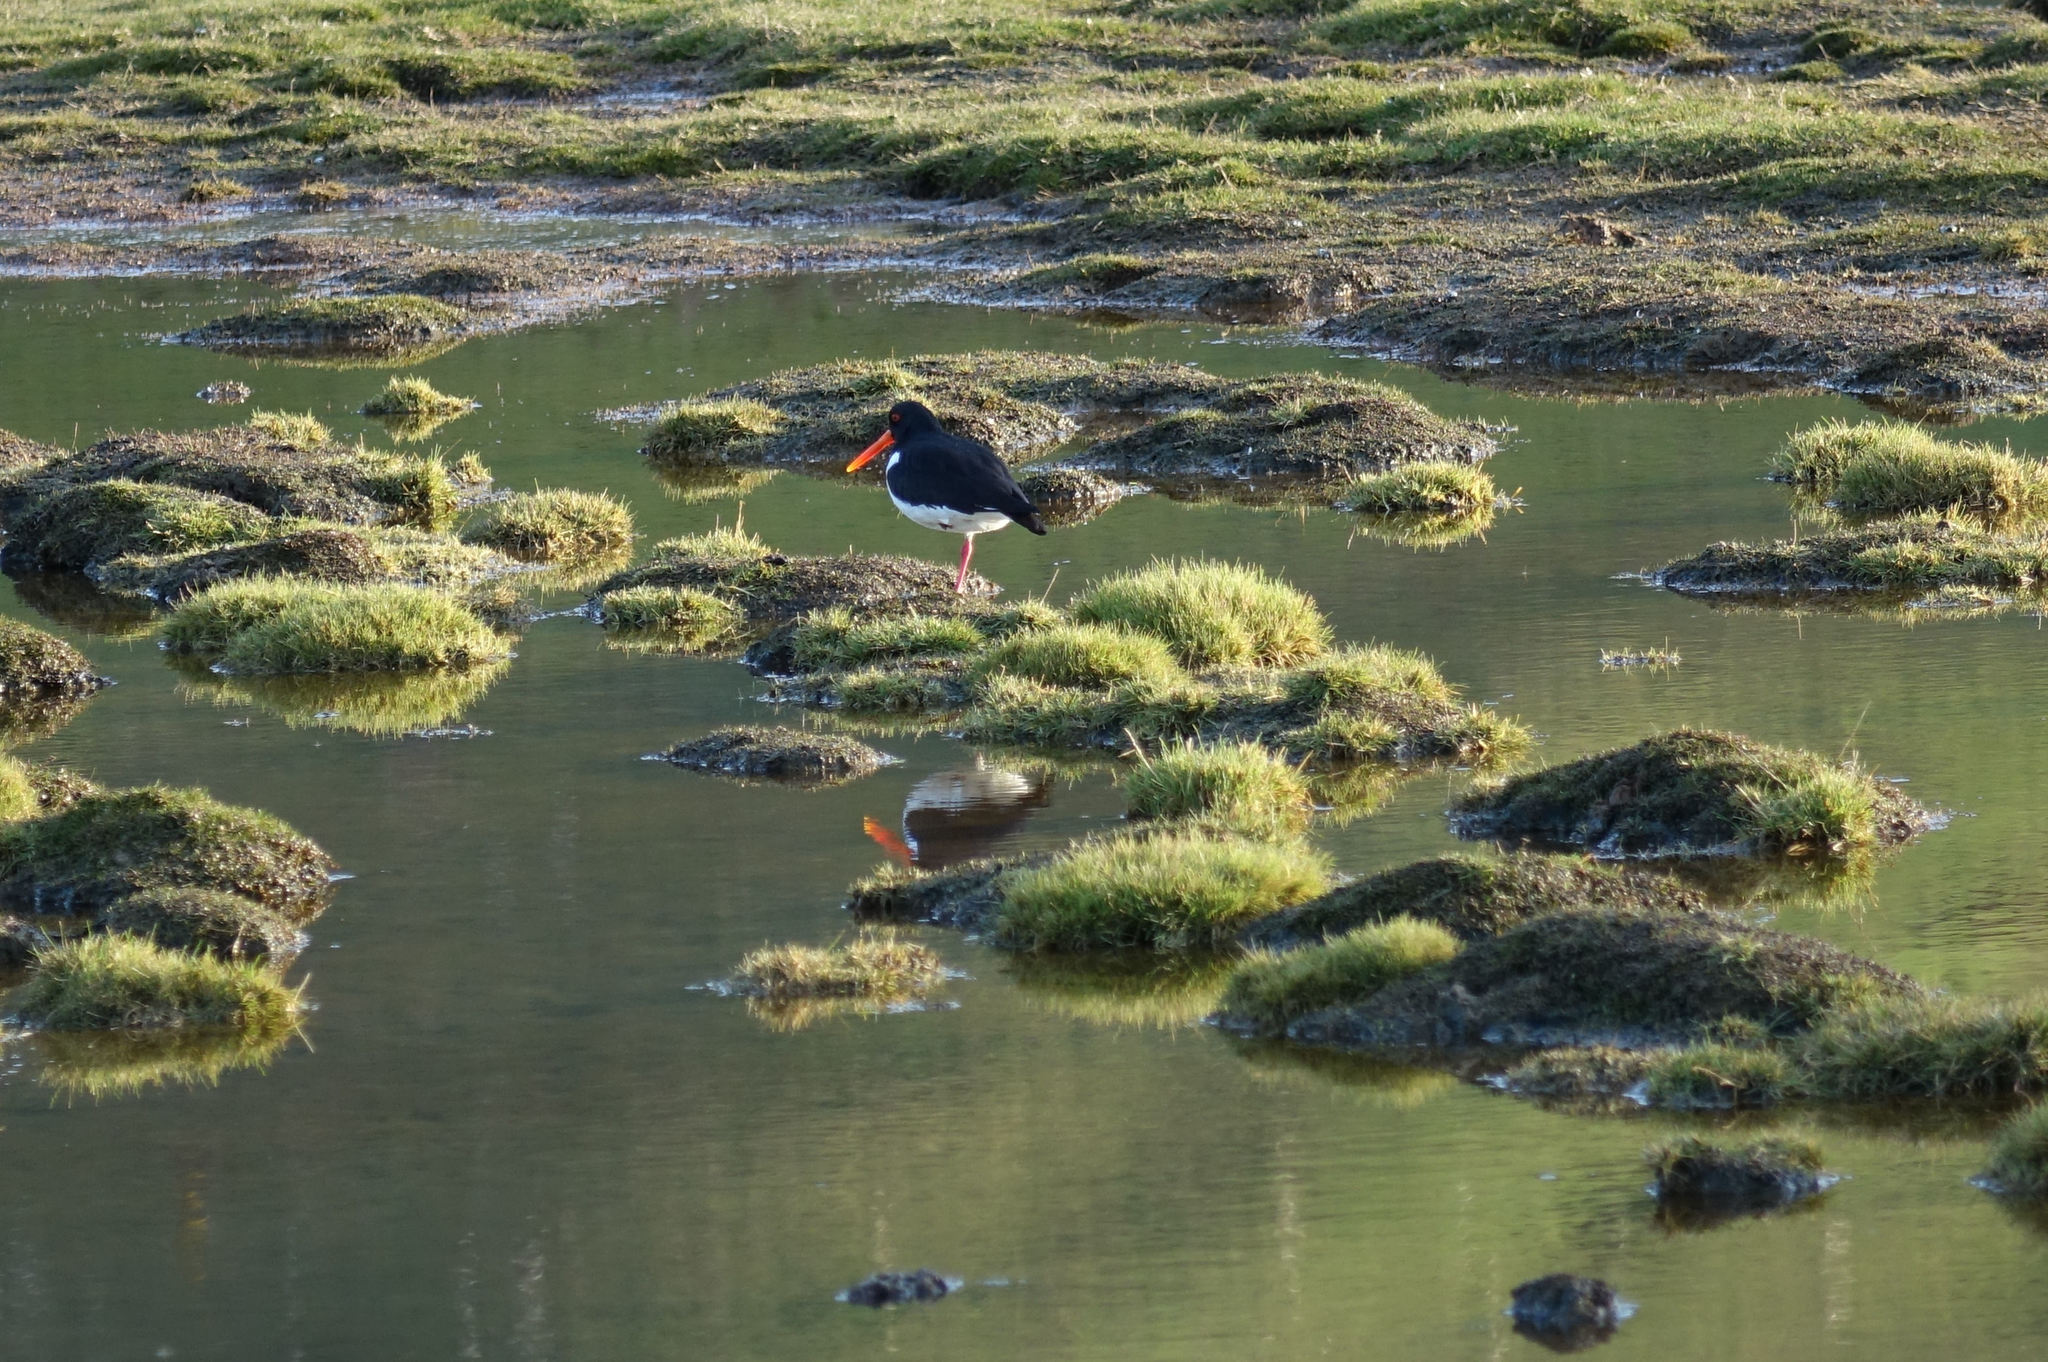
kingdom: Animalia
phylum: Chordata
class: Aves
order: Charadriiformes
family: Haematopodidae
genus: Haematopus
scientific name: Haematopus finschi
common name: South island oystercatcher
